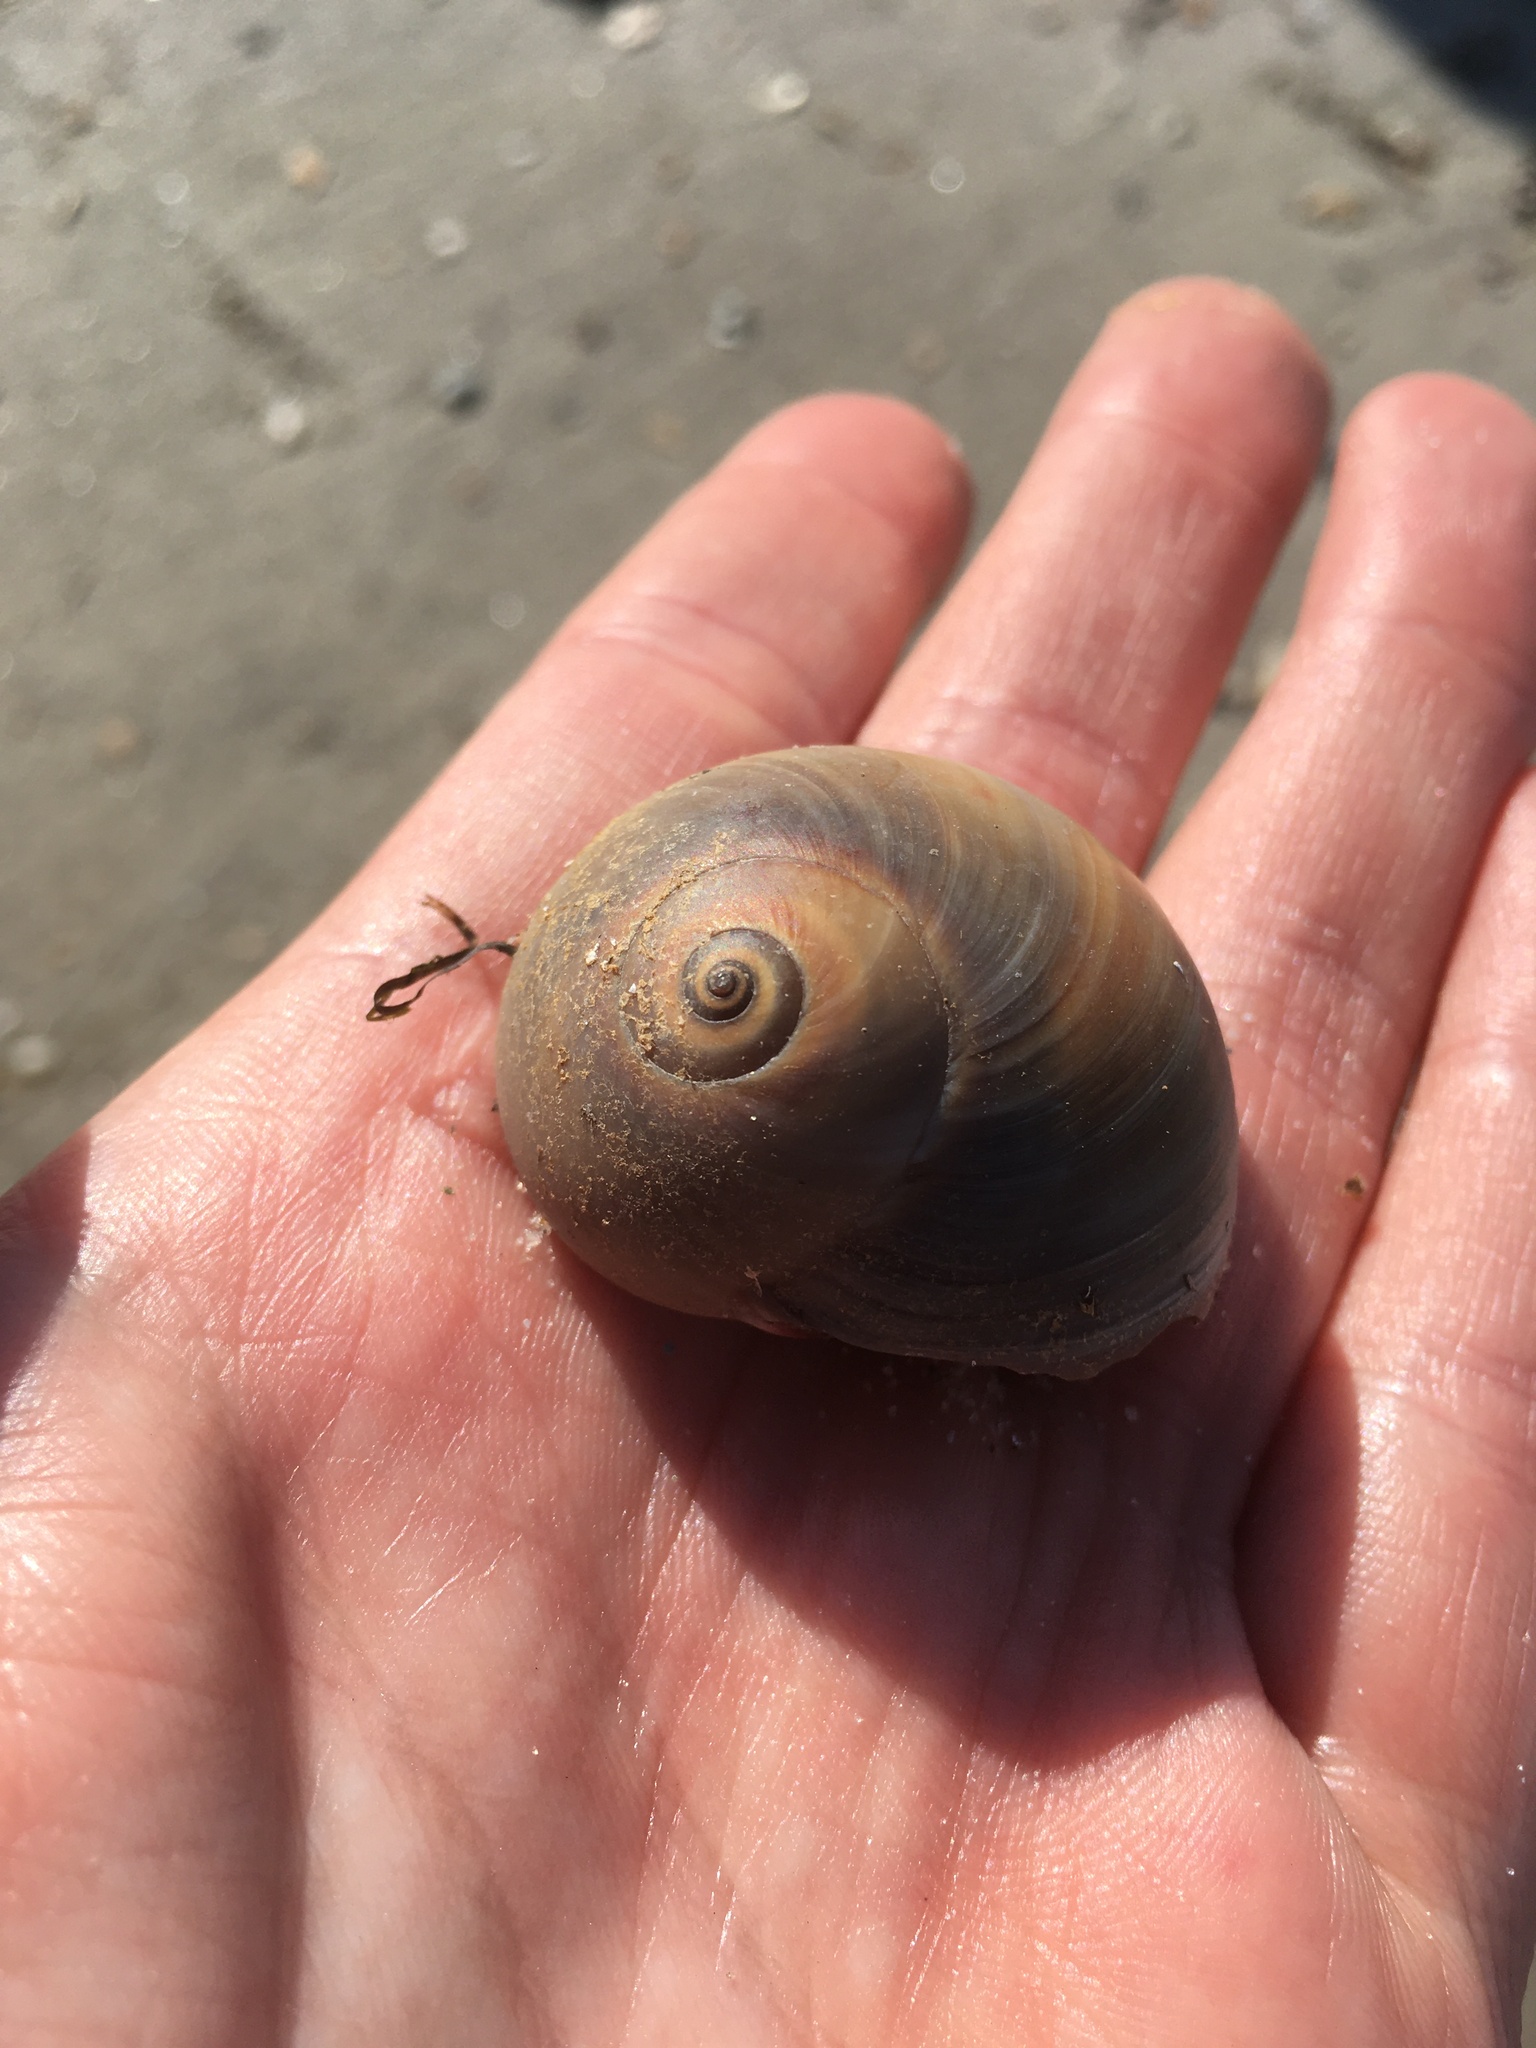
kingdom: Animalia
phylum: Mollusca
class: Gastropoda
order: Littorinimorpha
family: Naticidae
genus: Neverita
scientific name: Neverita duplicata
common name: Lobed moonsnail
